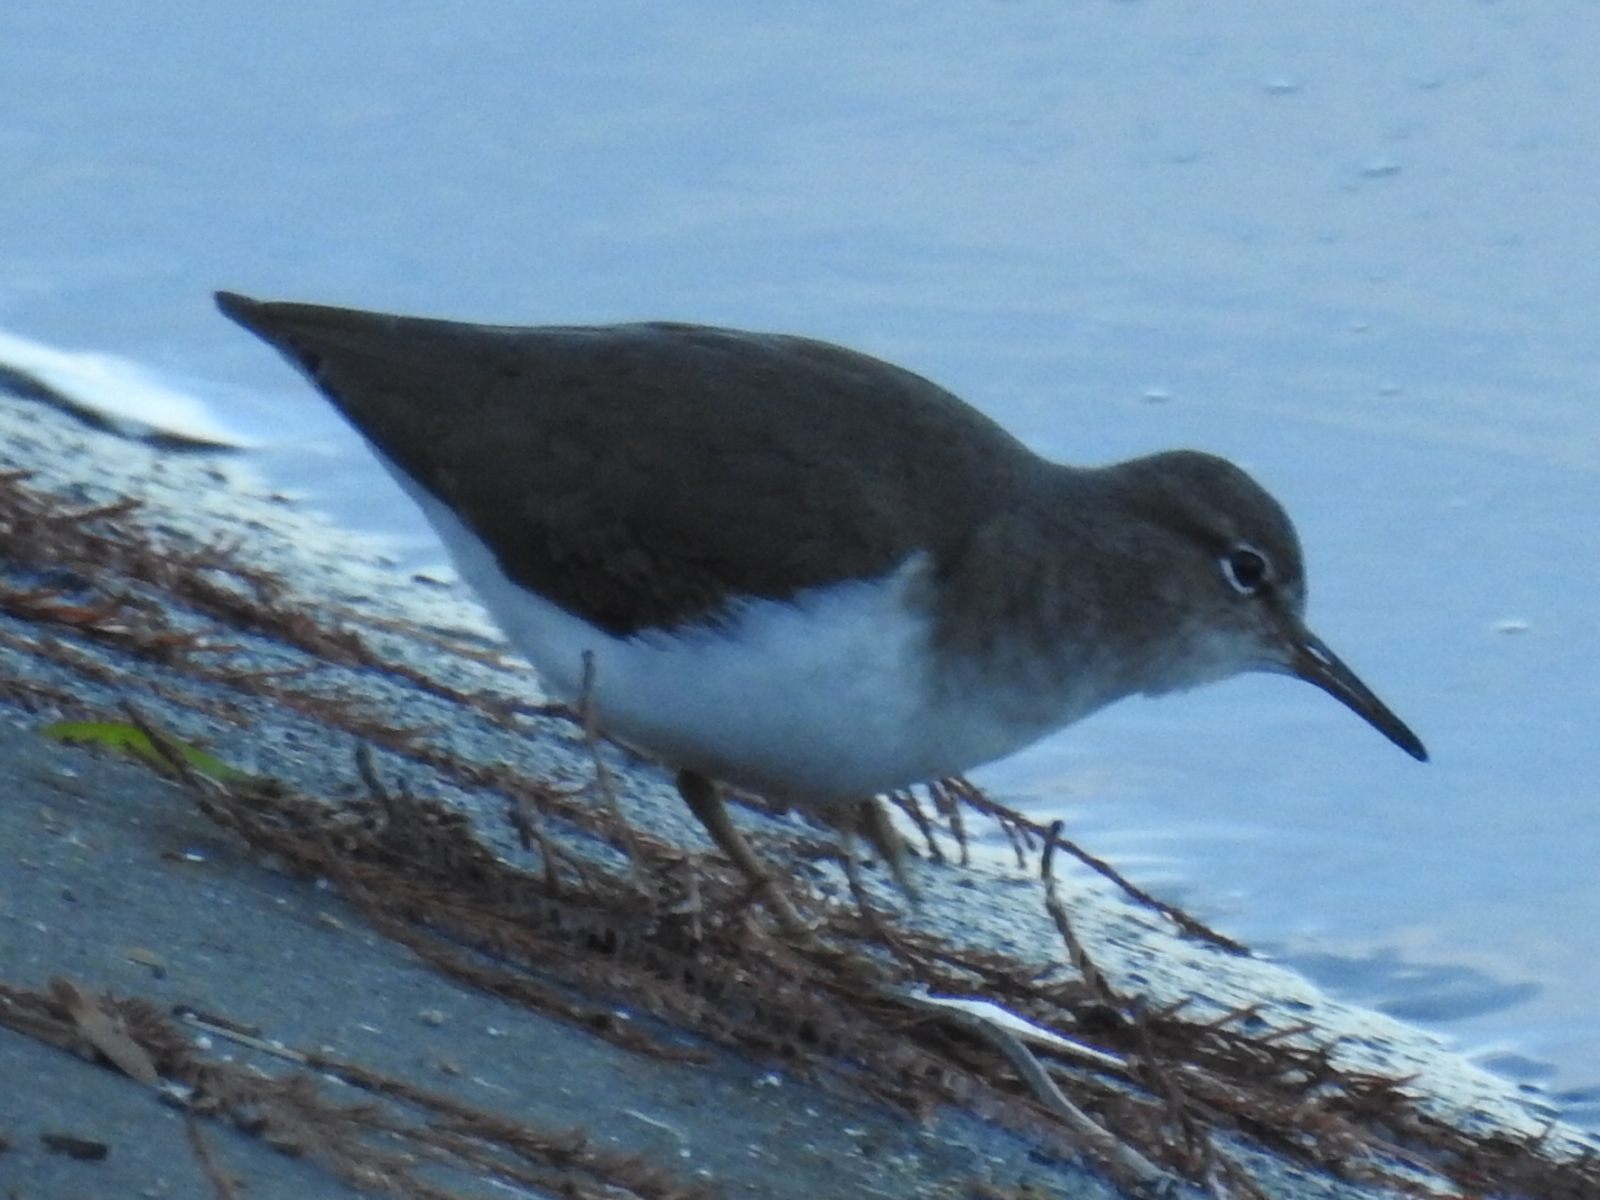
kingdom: Animalia
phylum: Chordata
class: Aves
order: Charadriiformes
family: Scolopacidae
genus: Actitis
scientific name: Actitis macularius
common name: Spotted sandpiper
